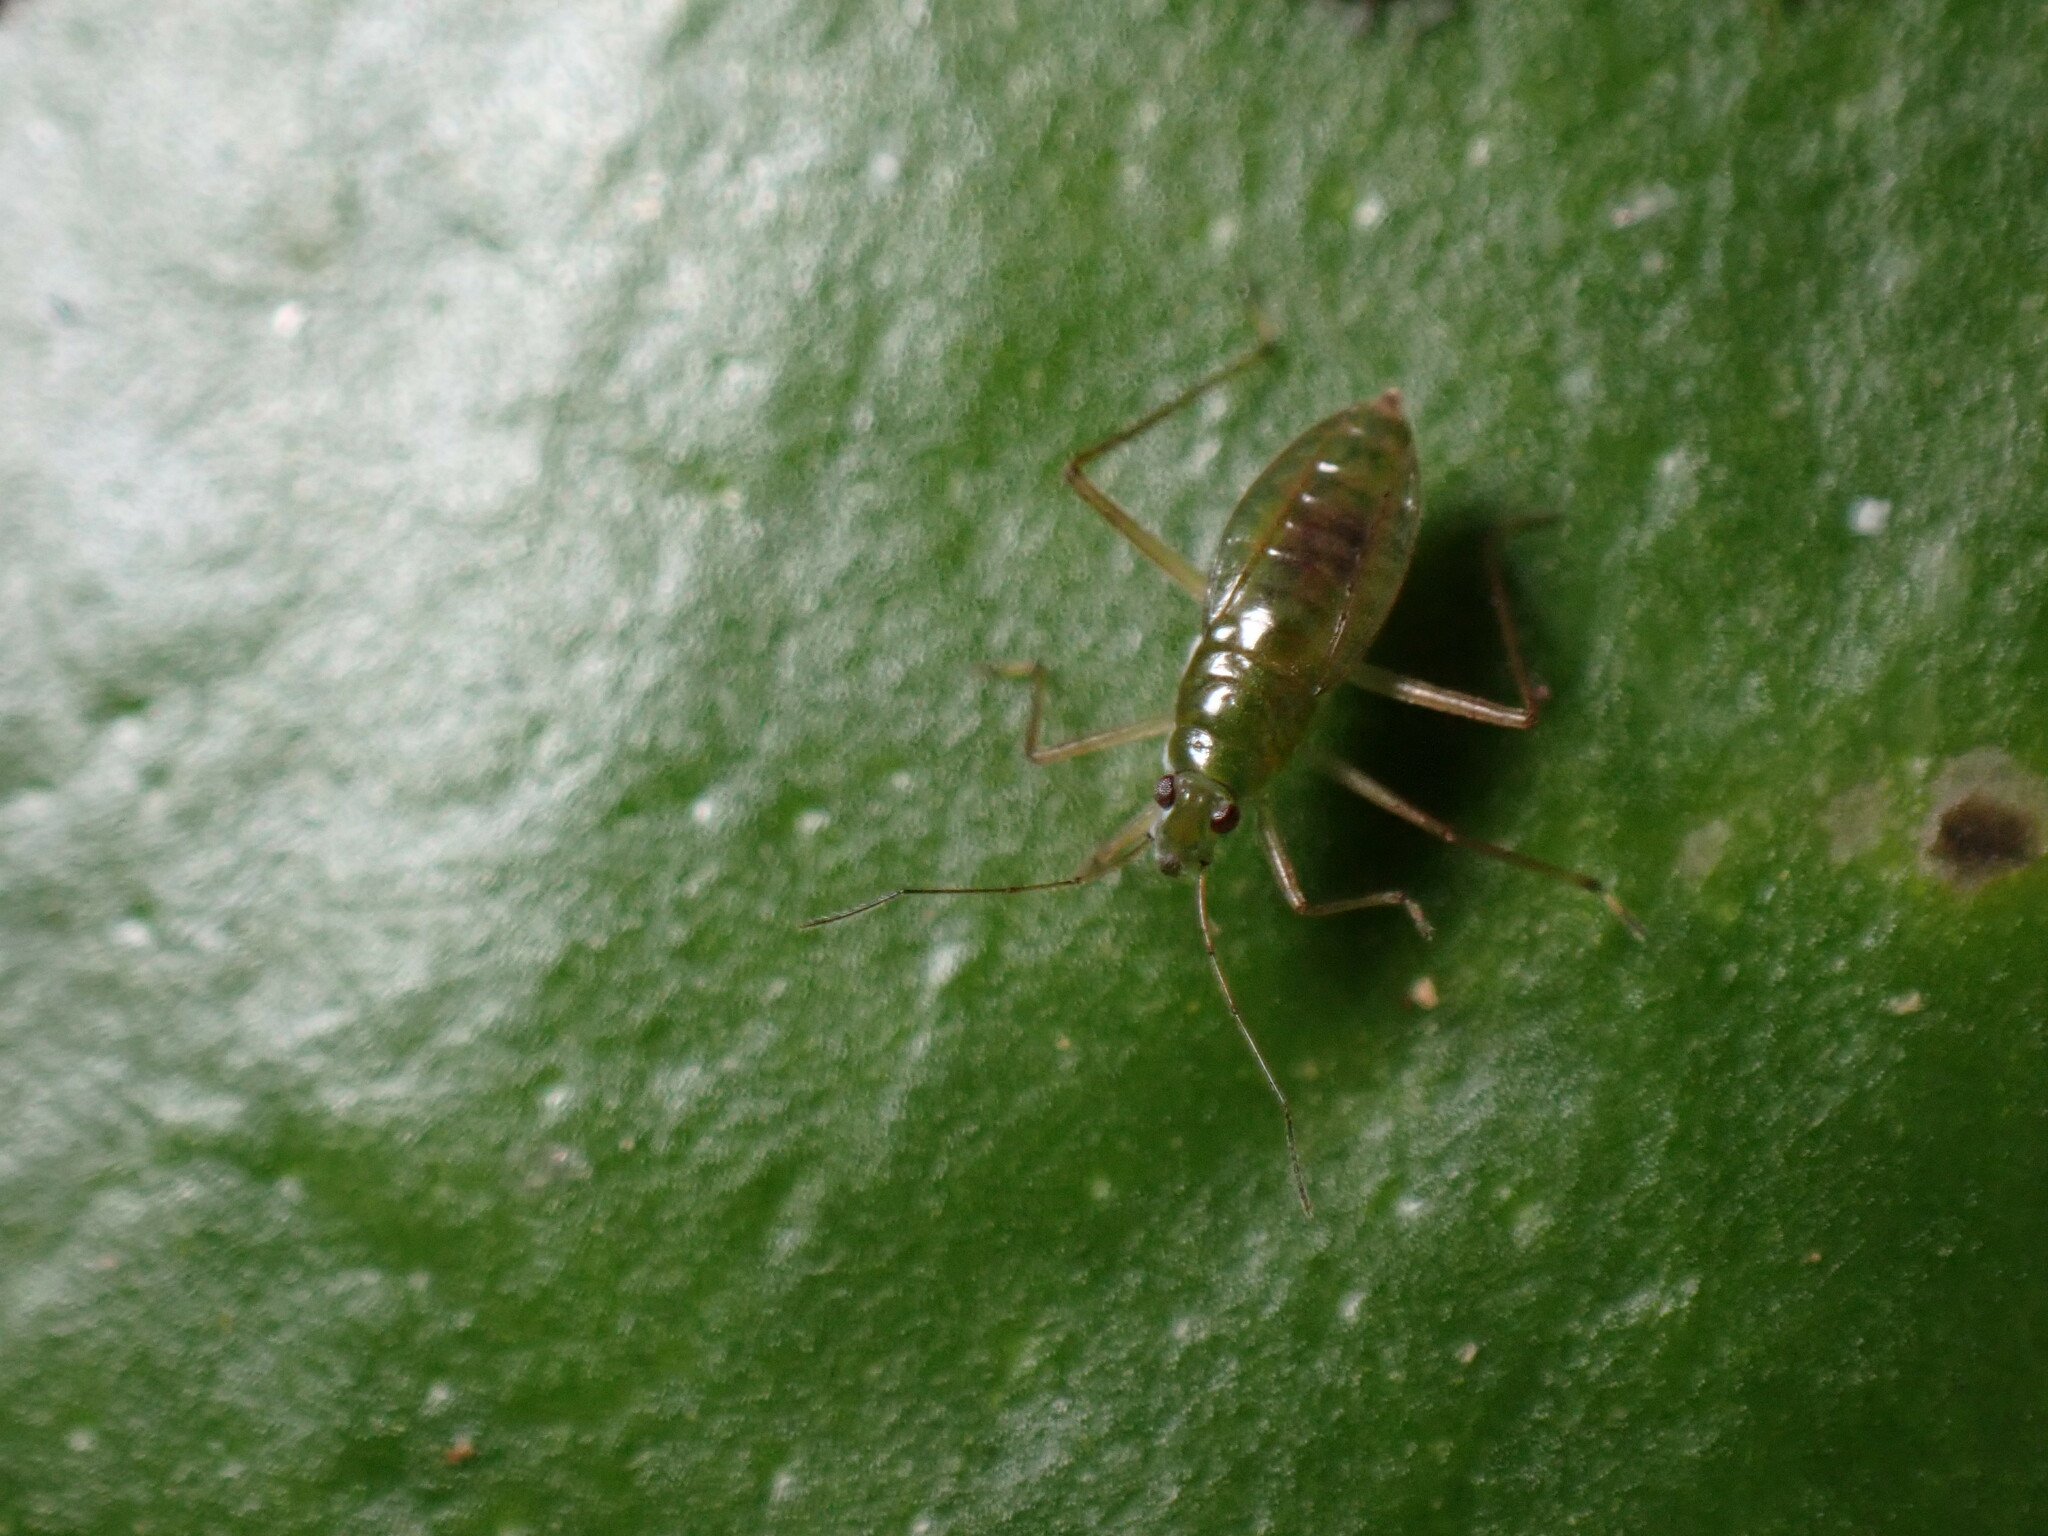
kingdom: Animalia
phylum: Arthropoda
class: Insecta
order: Hemiptera
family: Mesoveliidae
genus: Mesovelia
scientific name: Mesovelia mulsanti
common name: Water treaders
